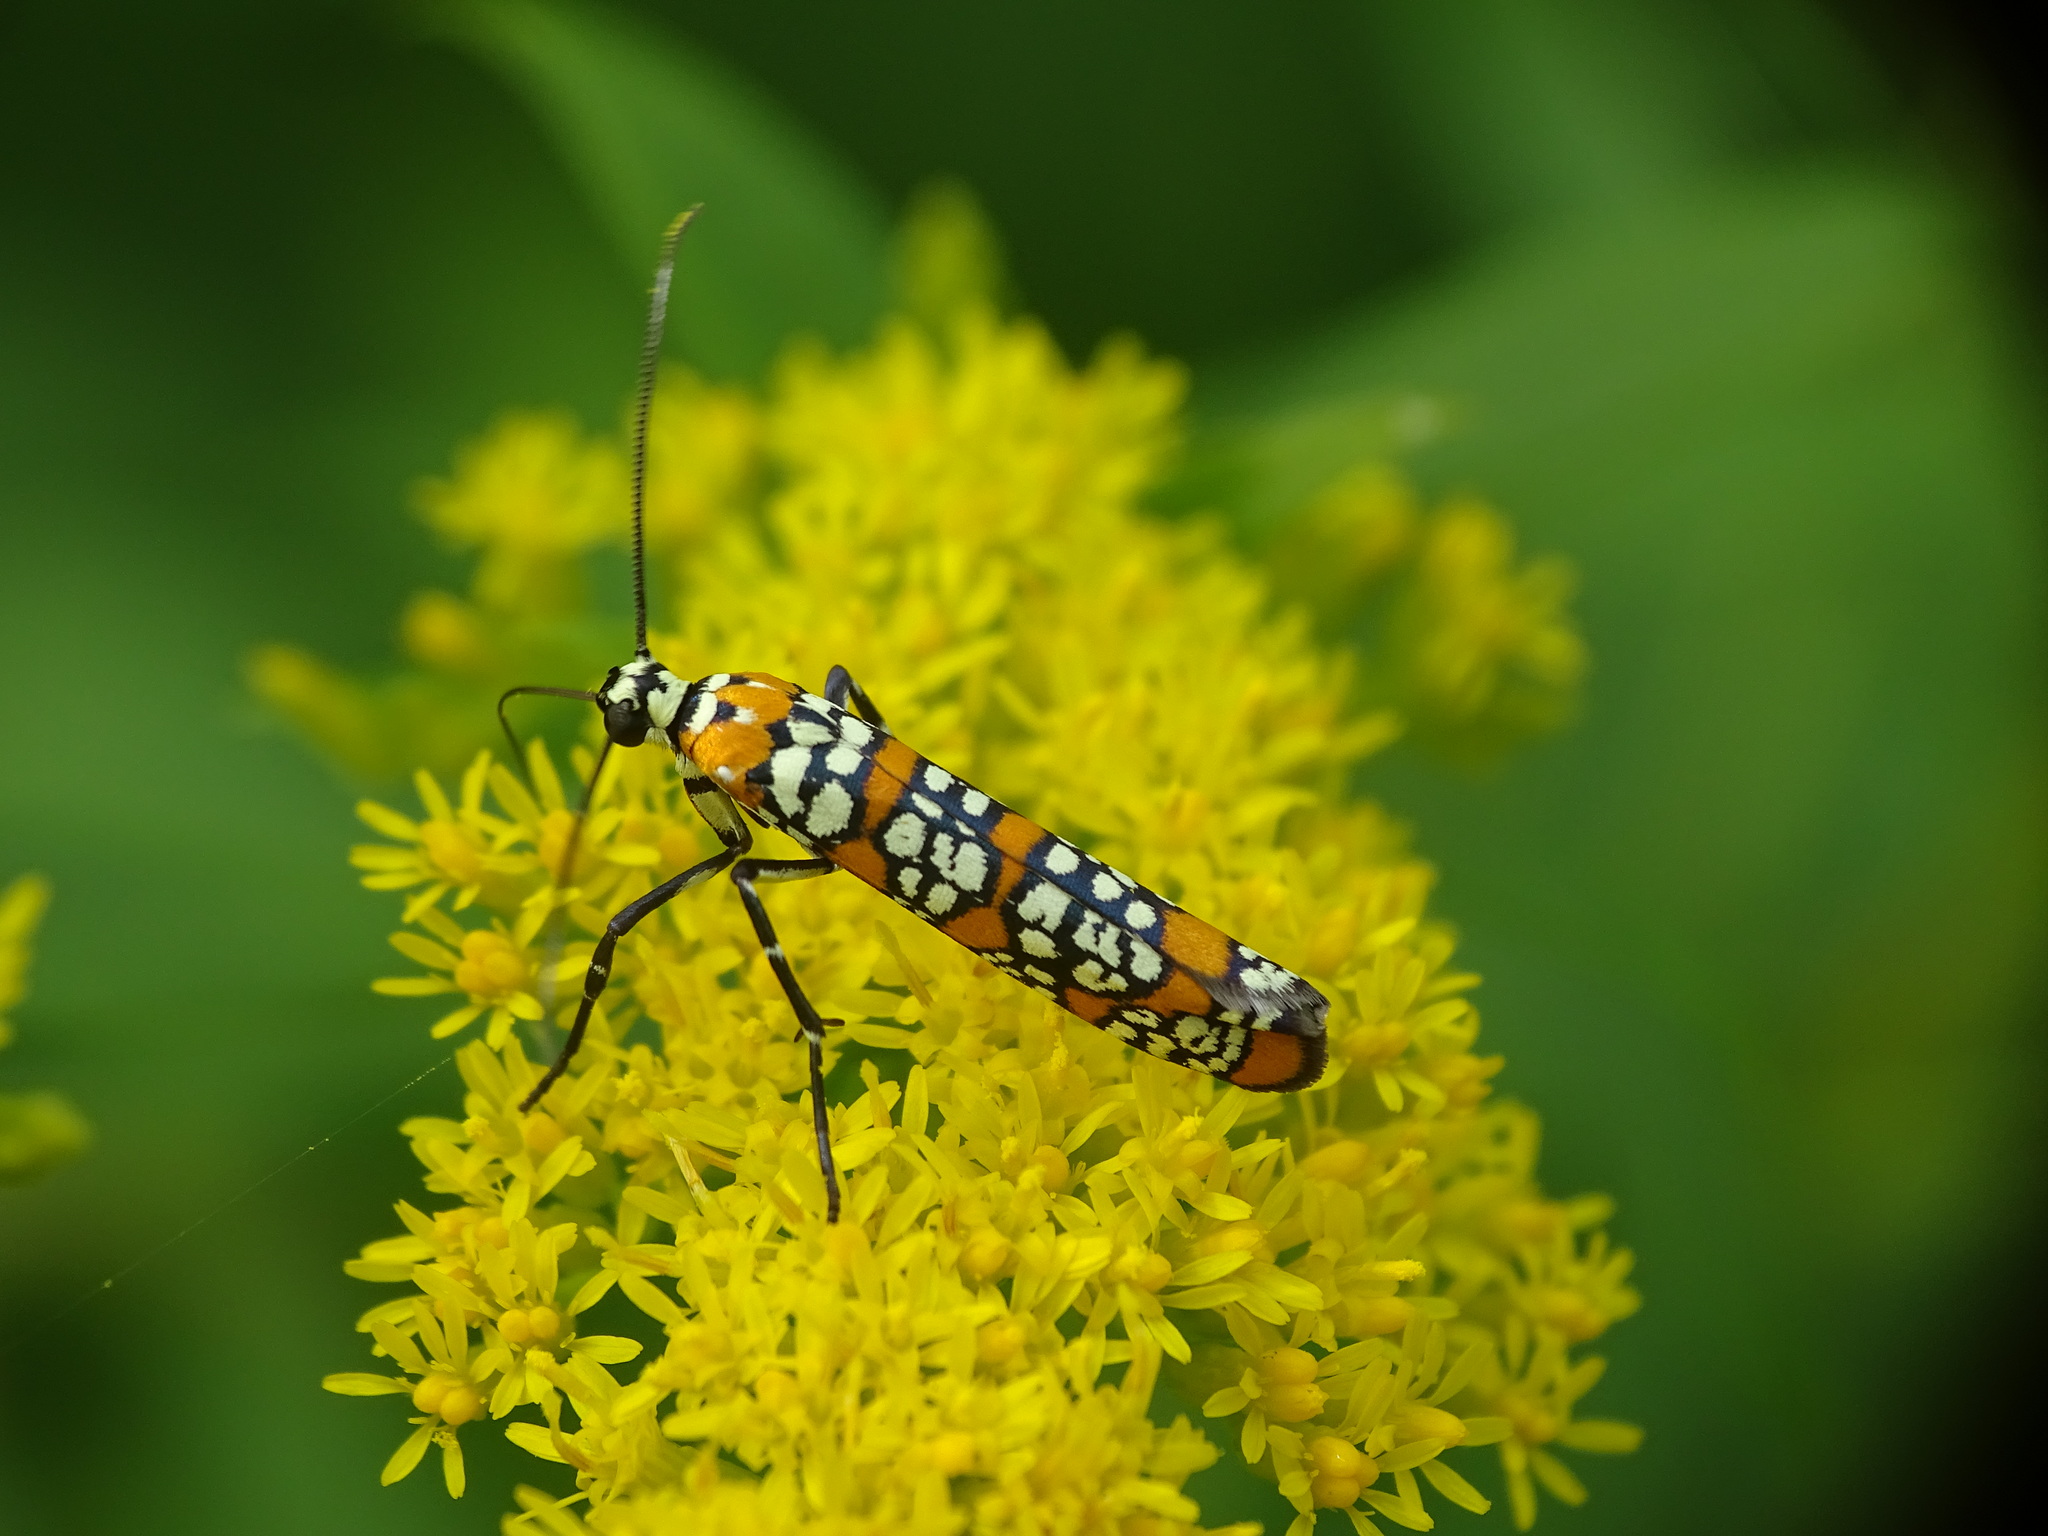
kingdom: Animalia
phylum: Arthropoda
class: Insecta
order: Lepidoptera
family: Attevidae
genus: Atteva
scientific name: Atteva punctella
